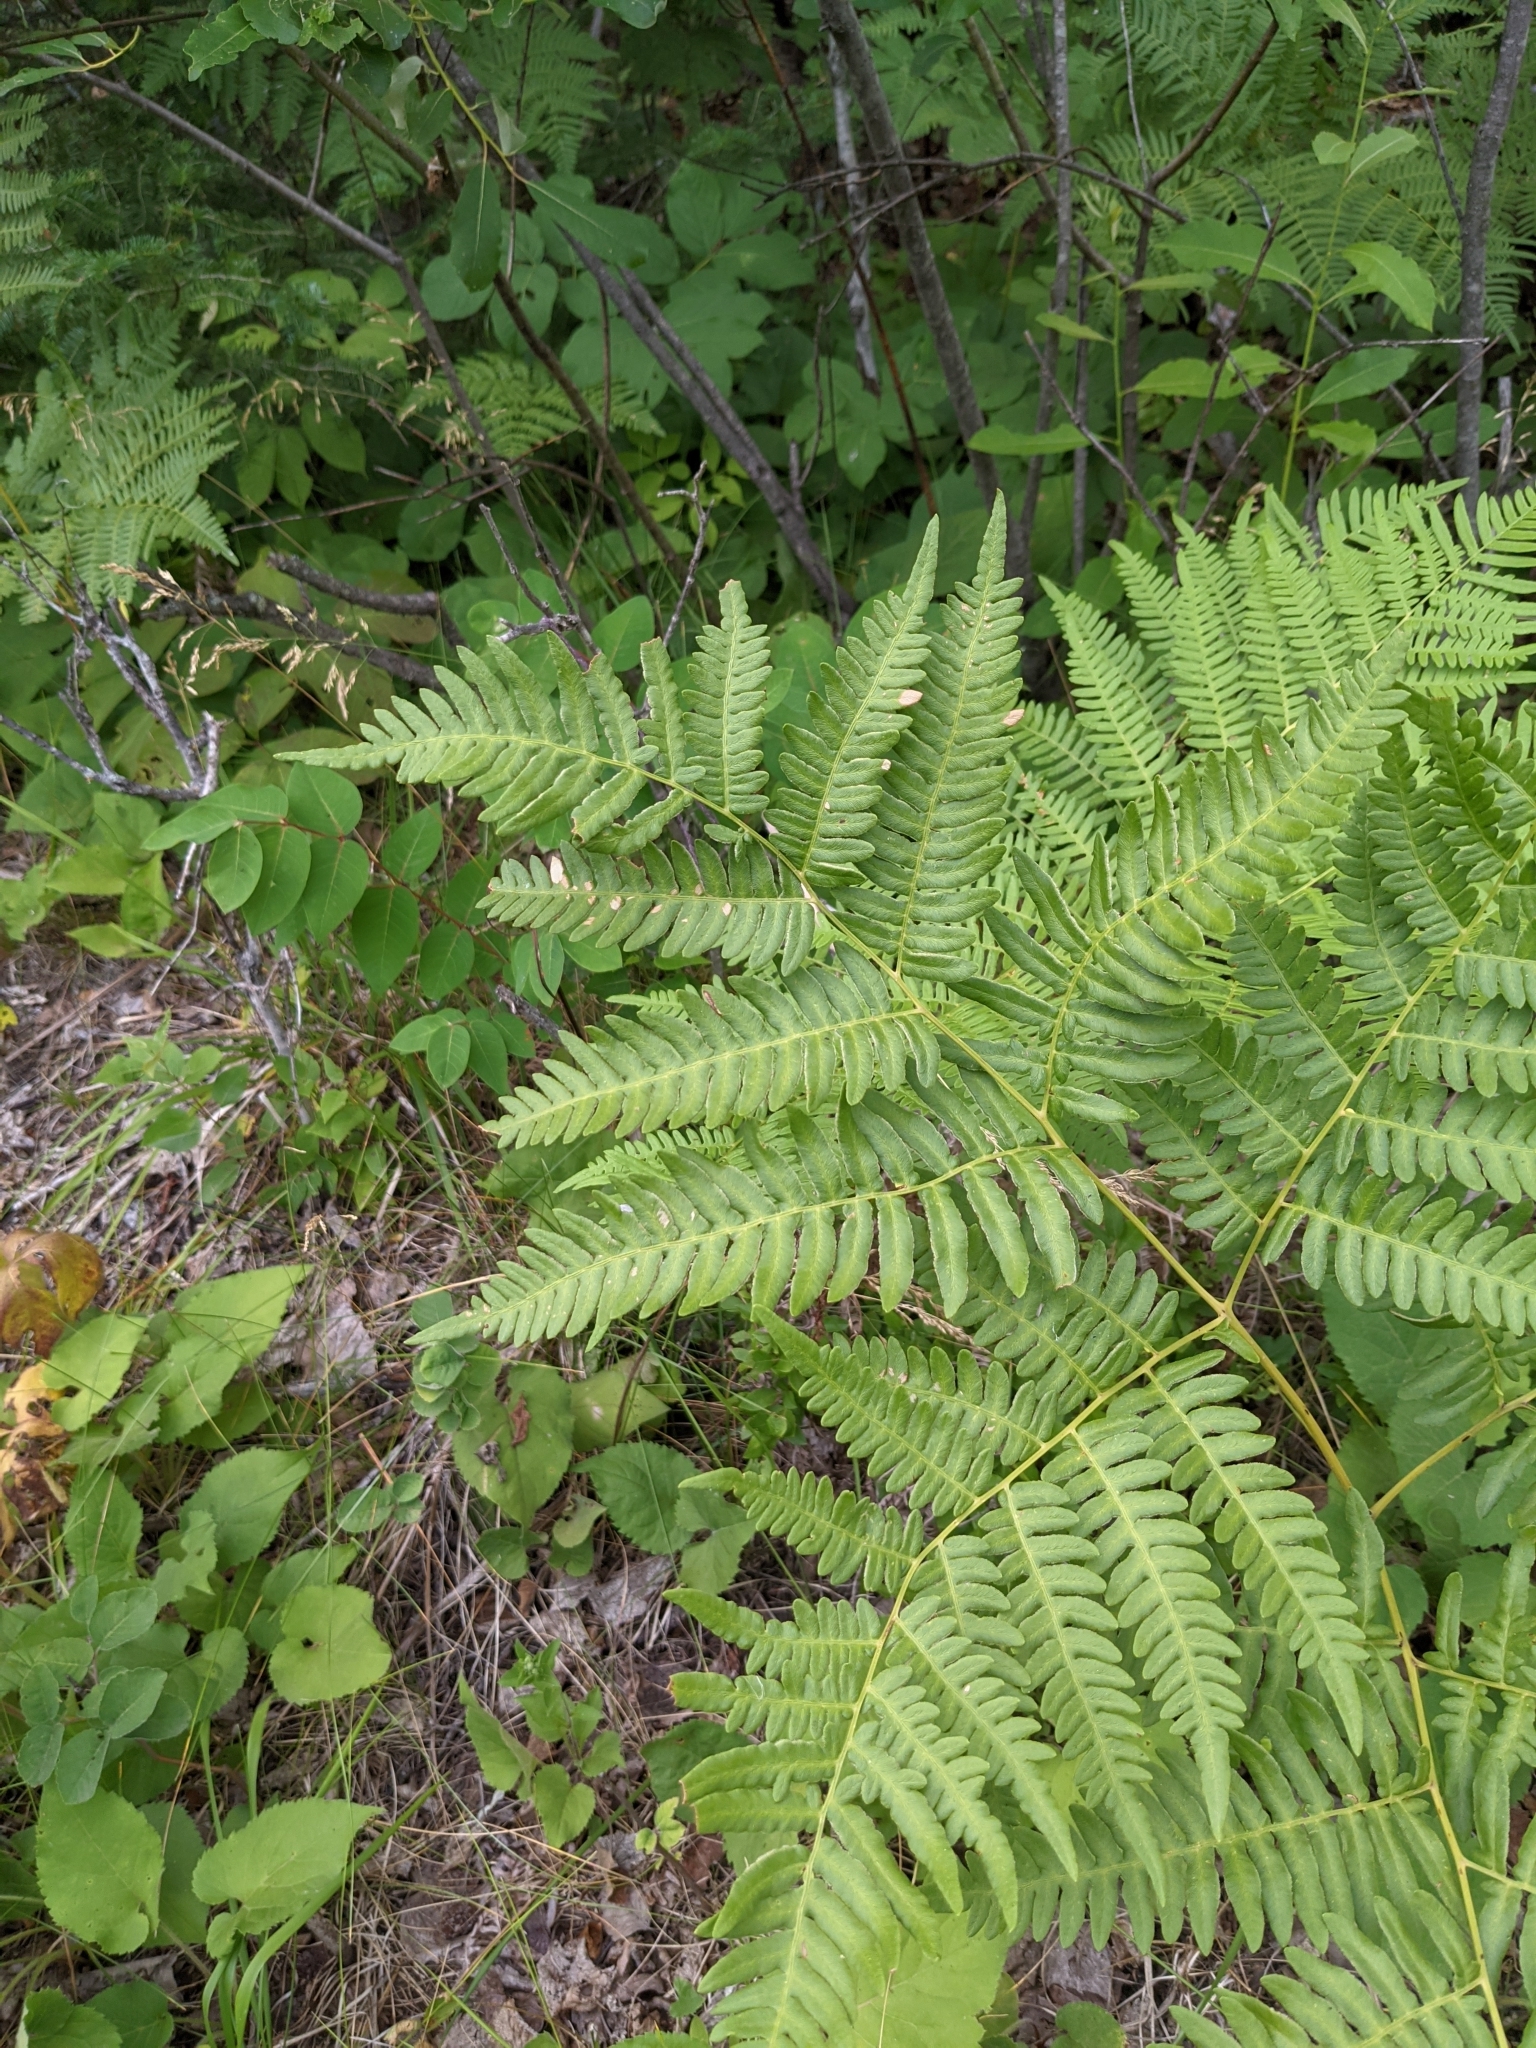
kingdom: Plantae
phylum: Tracheophyta
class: Polypodiopsida
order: Polypodiales
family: Dennstaedtiaceae
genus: Pteridium
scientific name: Pteridium aquilinum
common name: Bracken
